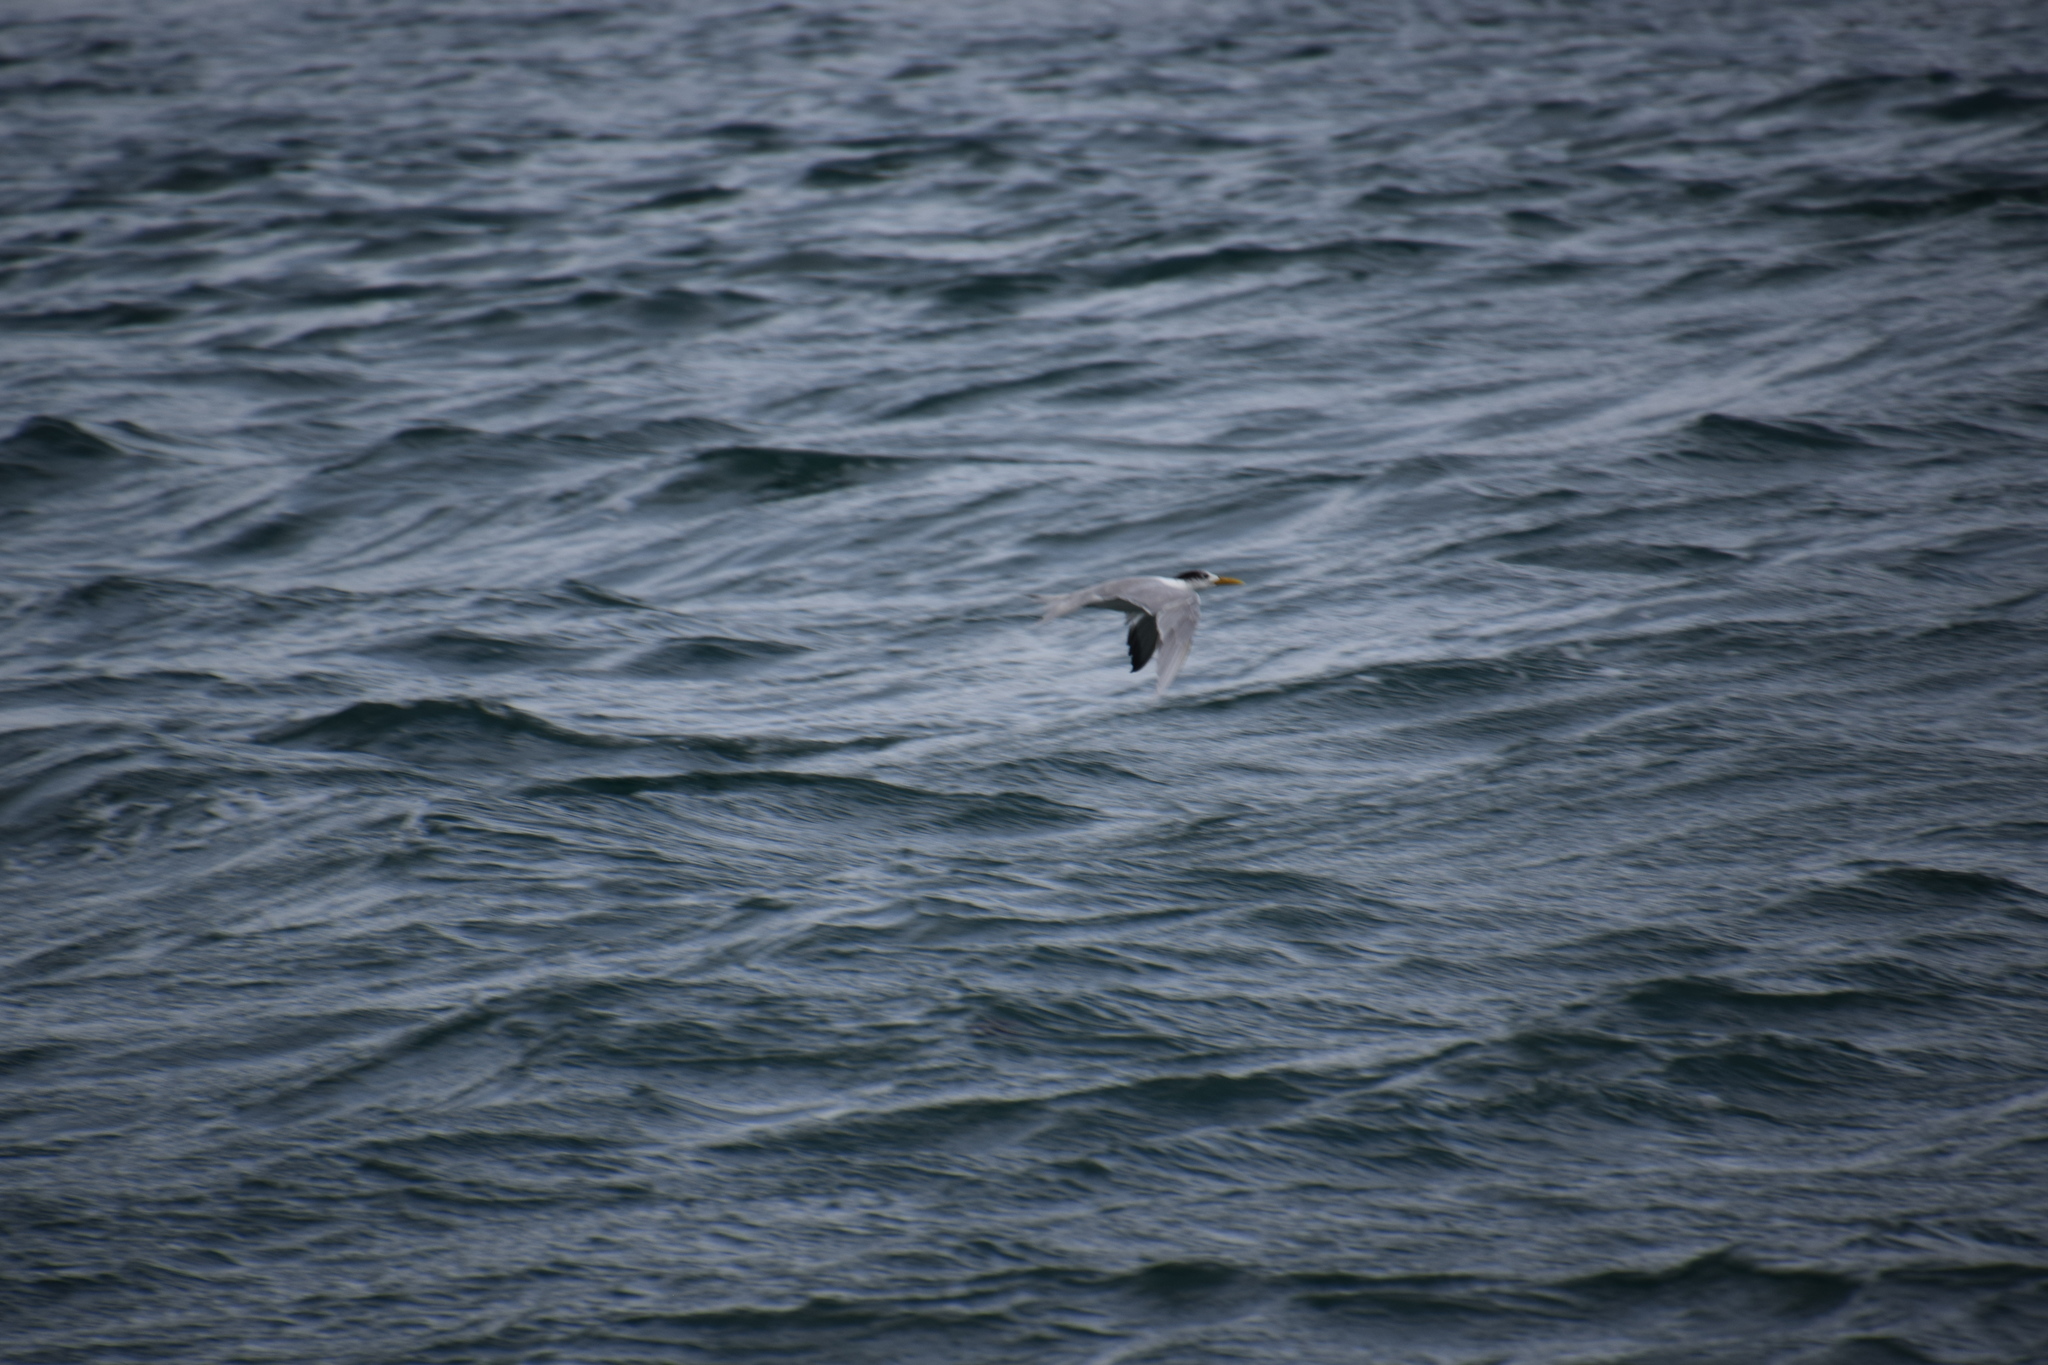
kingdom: Animalia
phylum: Chordata
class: Aves
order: Charadriiformes
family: Laridae
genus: Thalasseus
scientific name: Thalasseus bergii
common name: Greater crested tern
